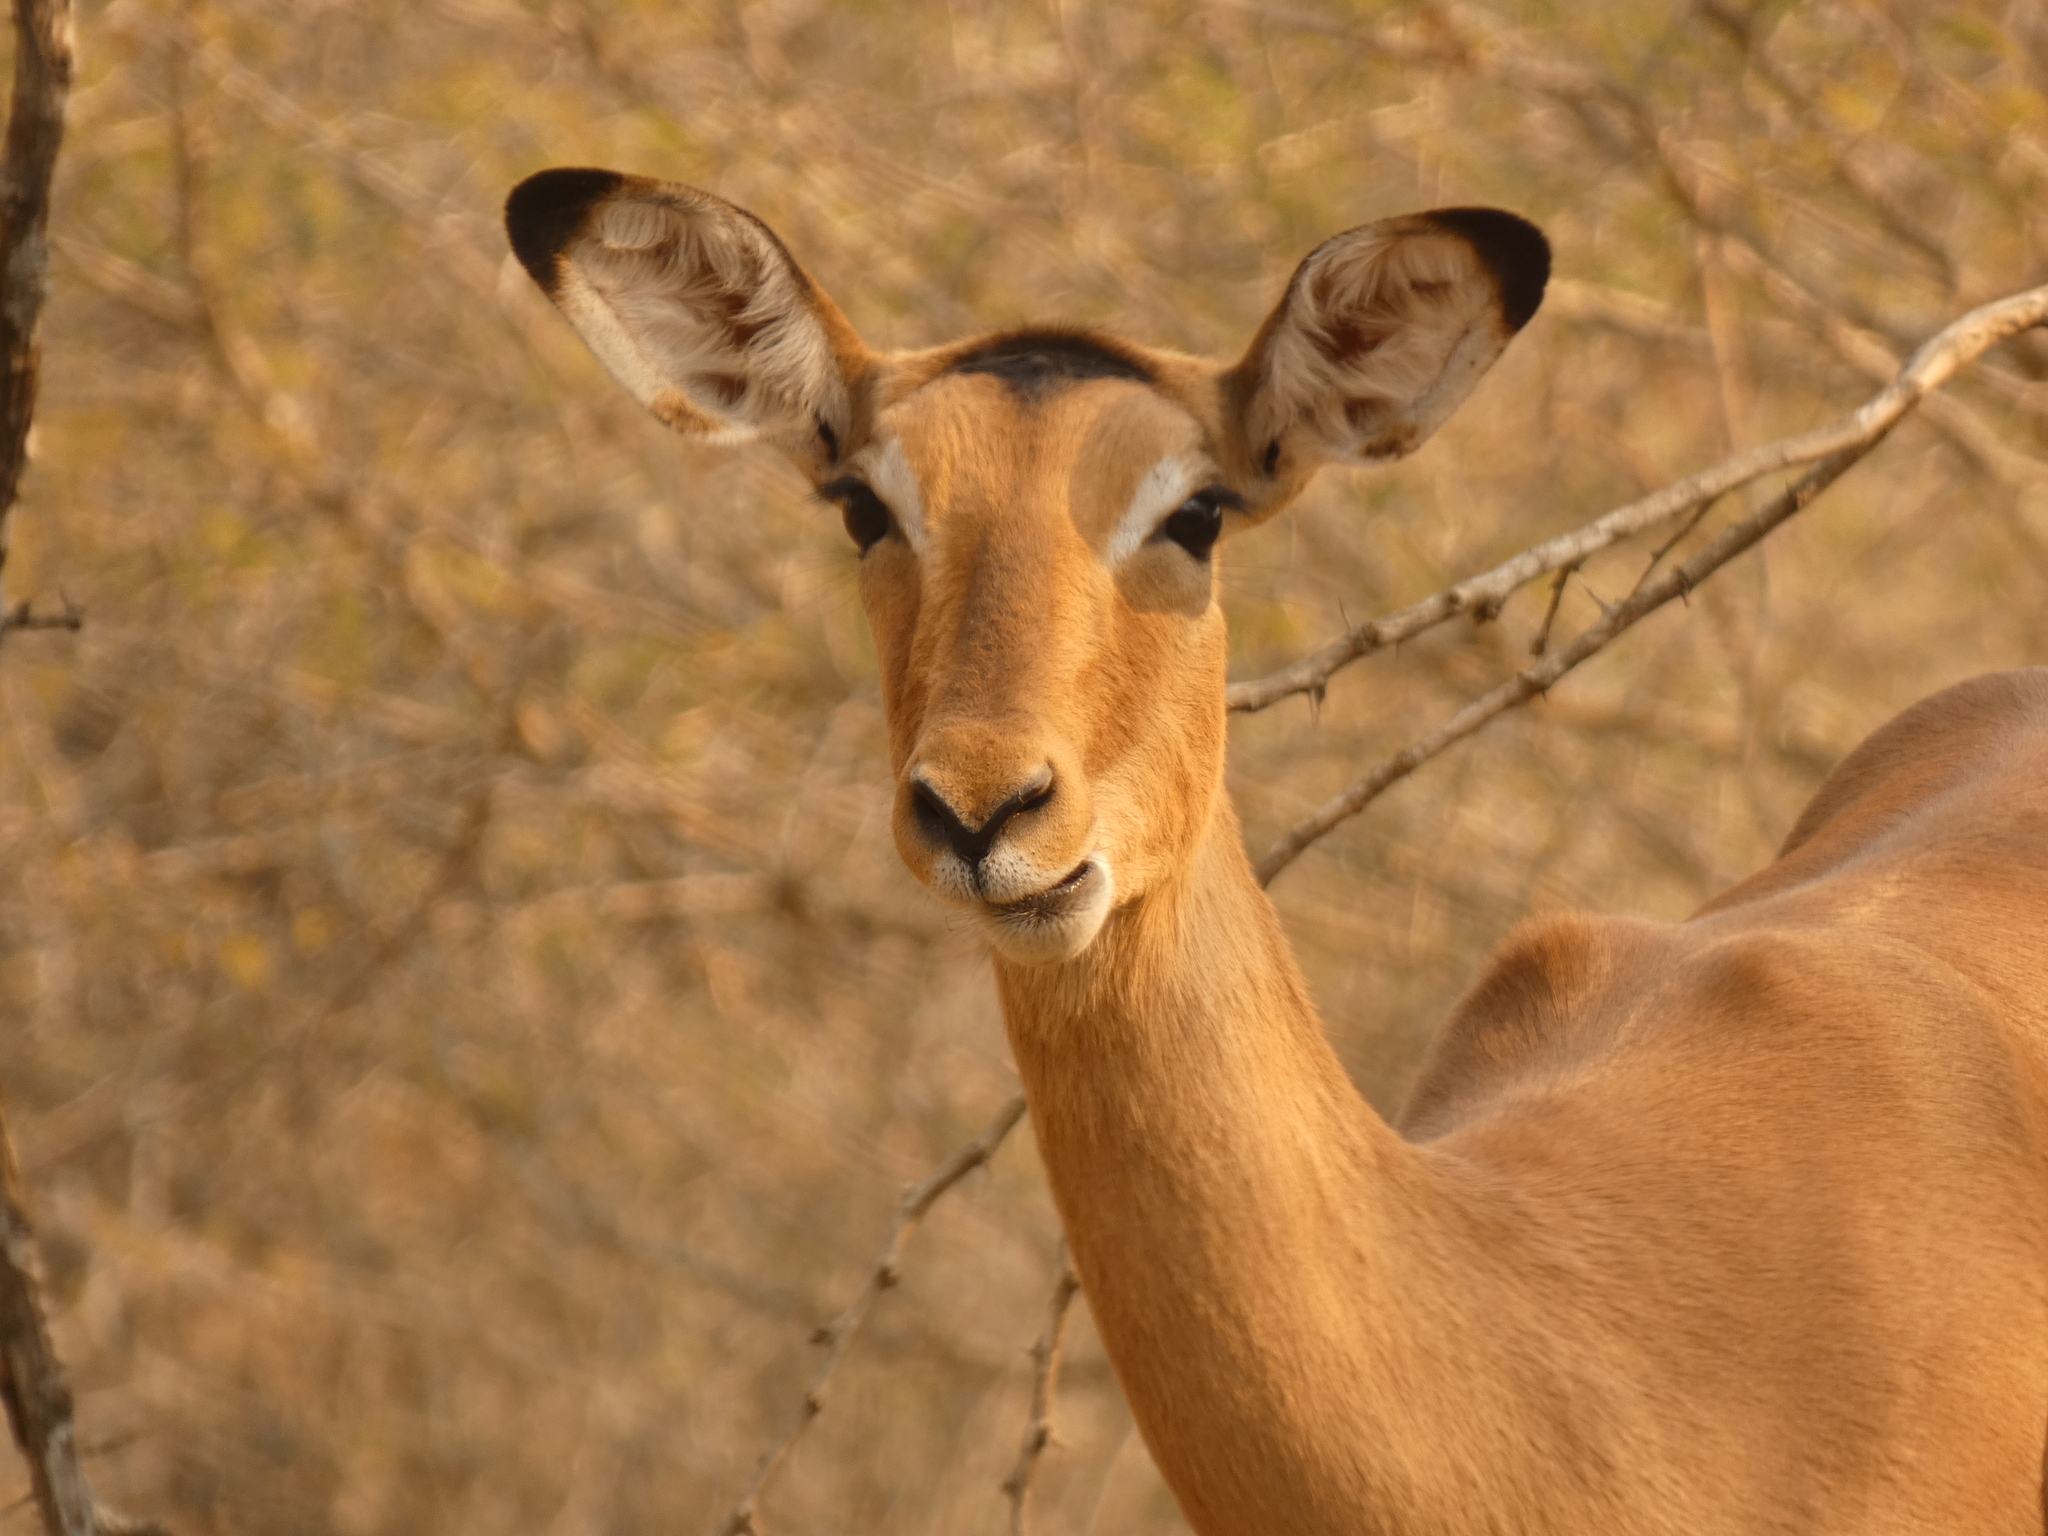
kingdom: Animalia
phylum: Chordata
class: Mammalia
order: Artiodactyla
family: Bovidae
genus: Aepyceros
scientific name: Aepyceros melampus
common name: Impala
